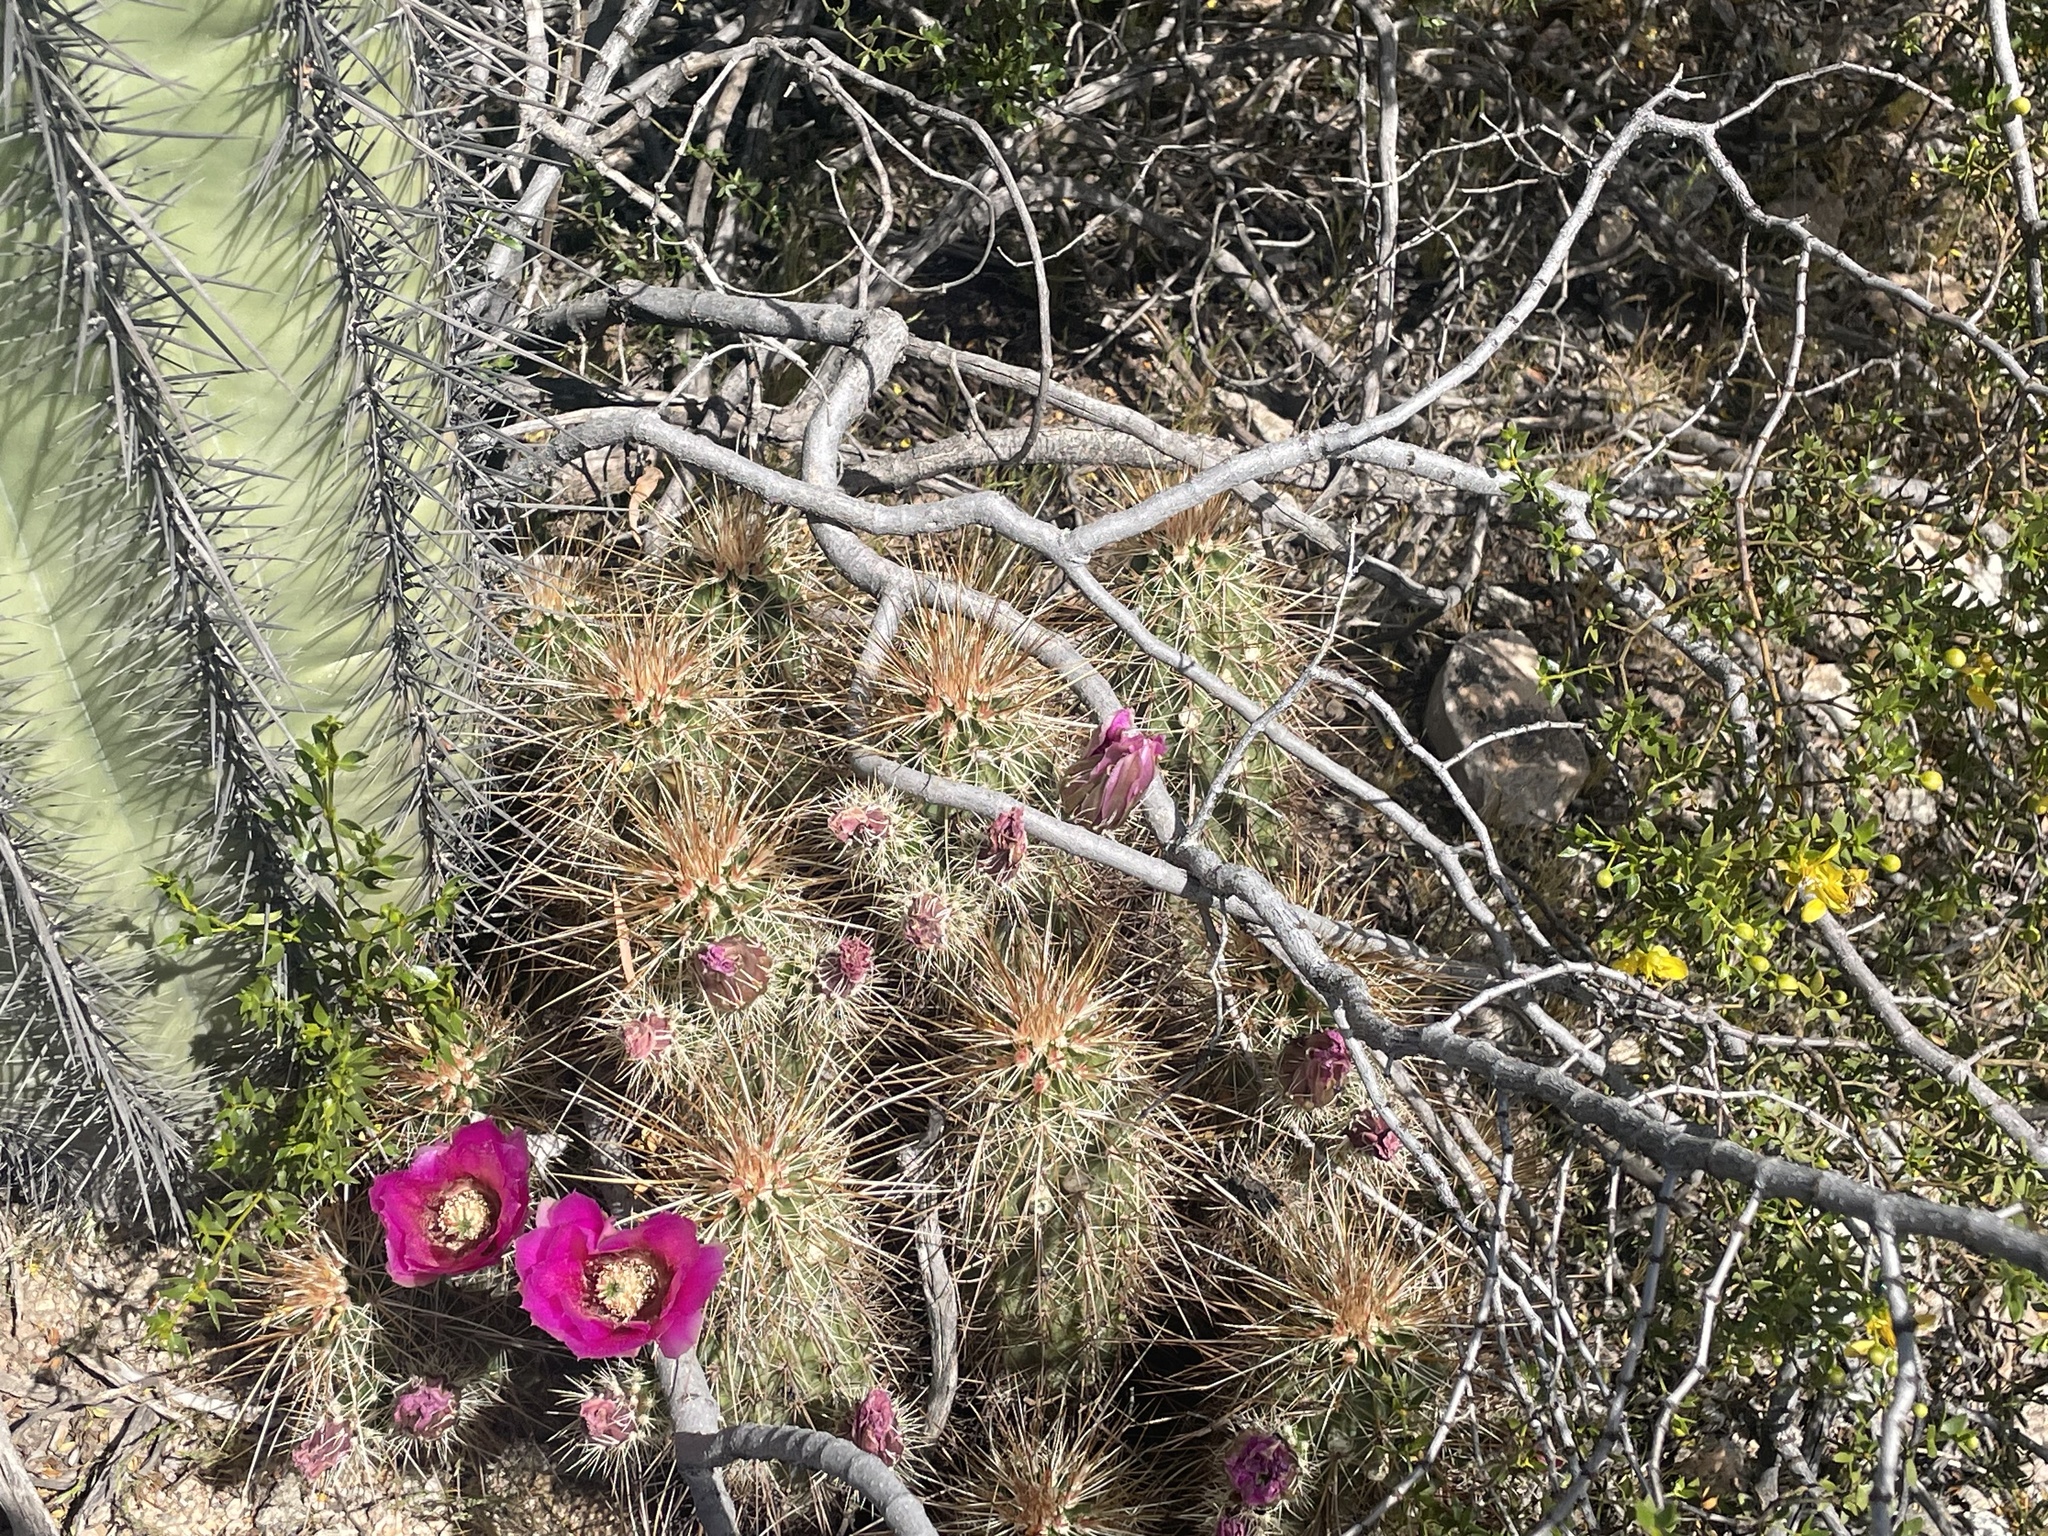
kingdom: Plantae
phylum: Tracheophyta
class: Magnoliopsida
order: Caryophyllales
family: Cactaceae
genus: Echinocereus
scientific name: Echinocereus engelmannii
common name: Engelmann's hedgehog cactus
